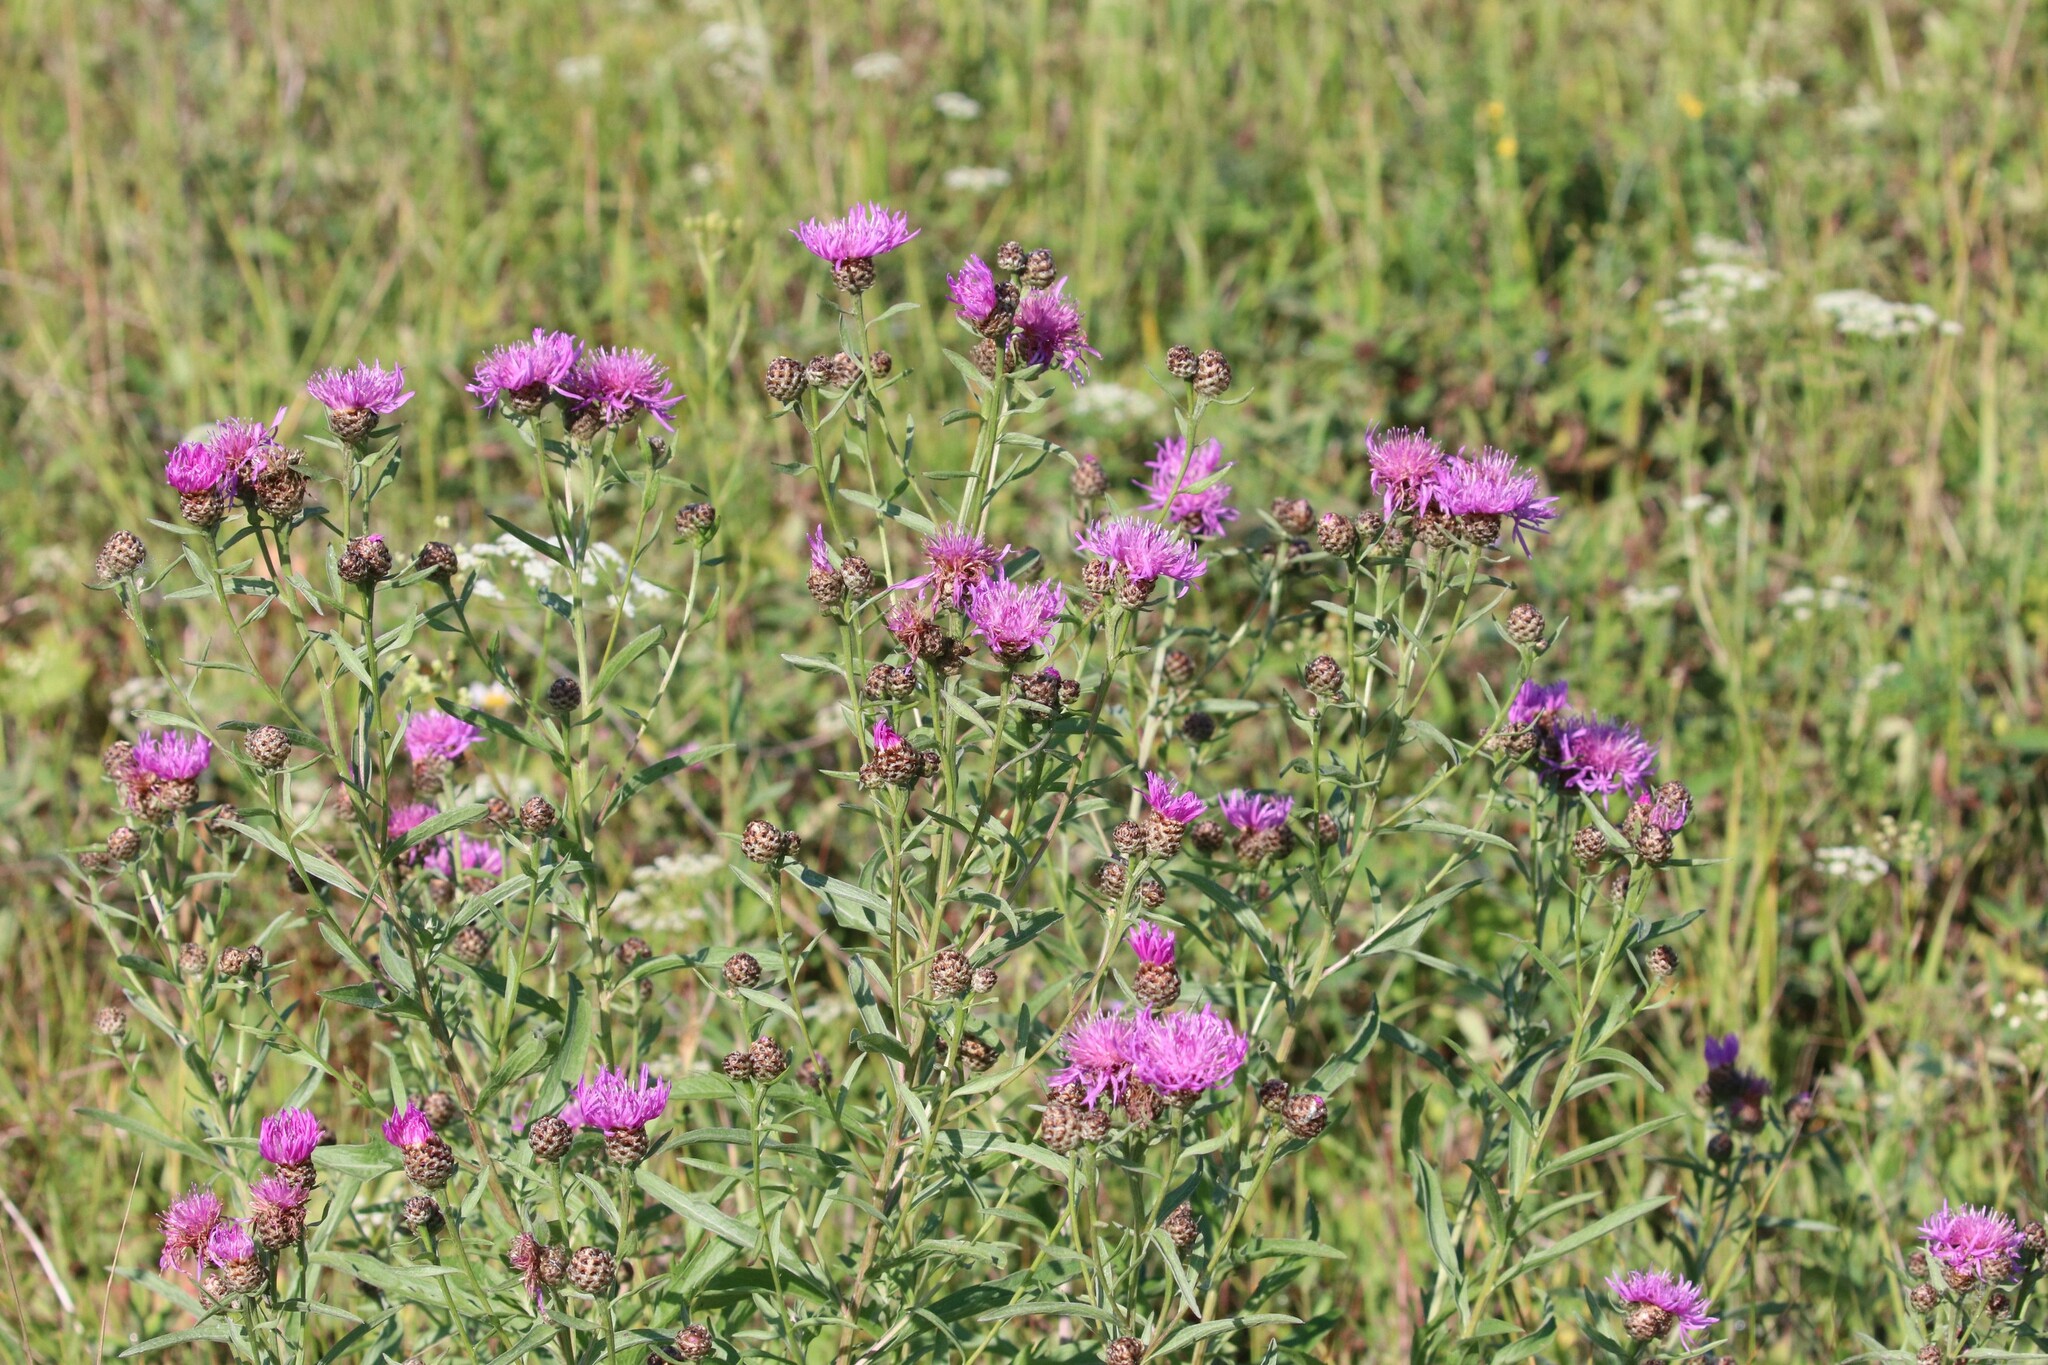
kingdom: Plantae
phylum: Tracheophyta
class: Magnoliopsida
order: Asterales
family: Asteraceae
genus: Centaurea
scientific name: Centaurea jacea
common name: Brown knapweed
